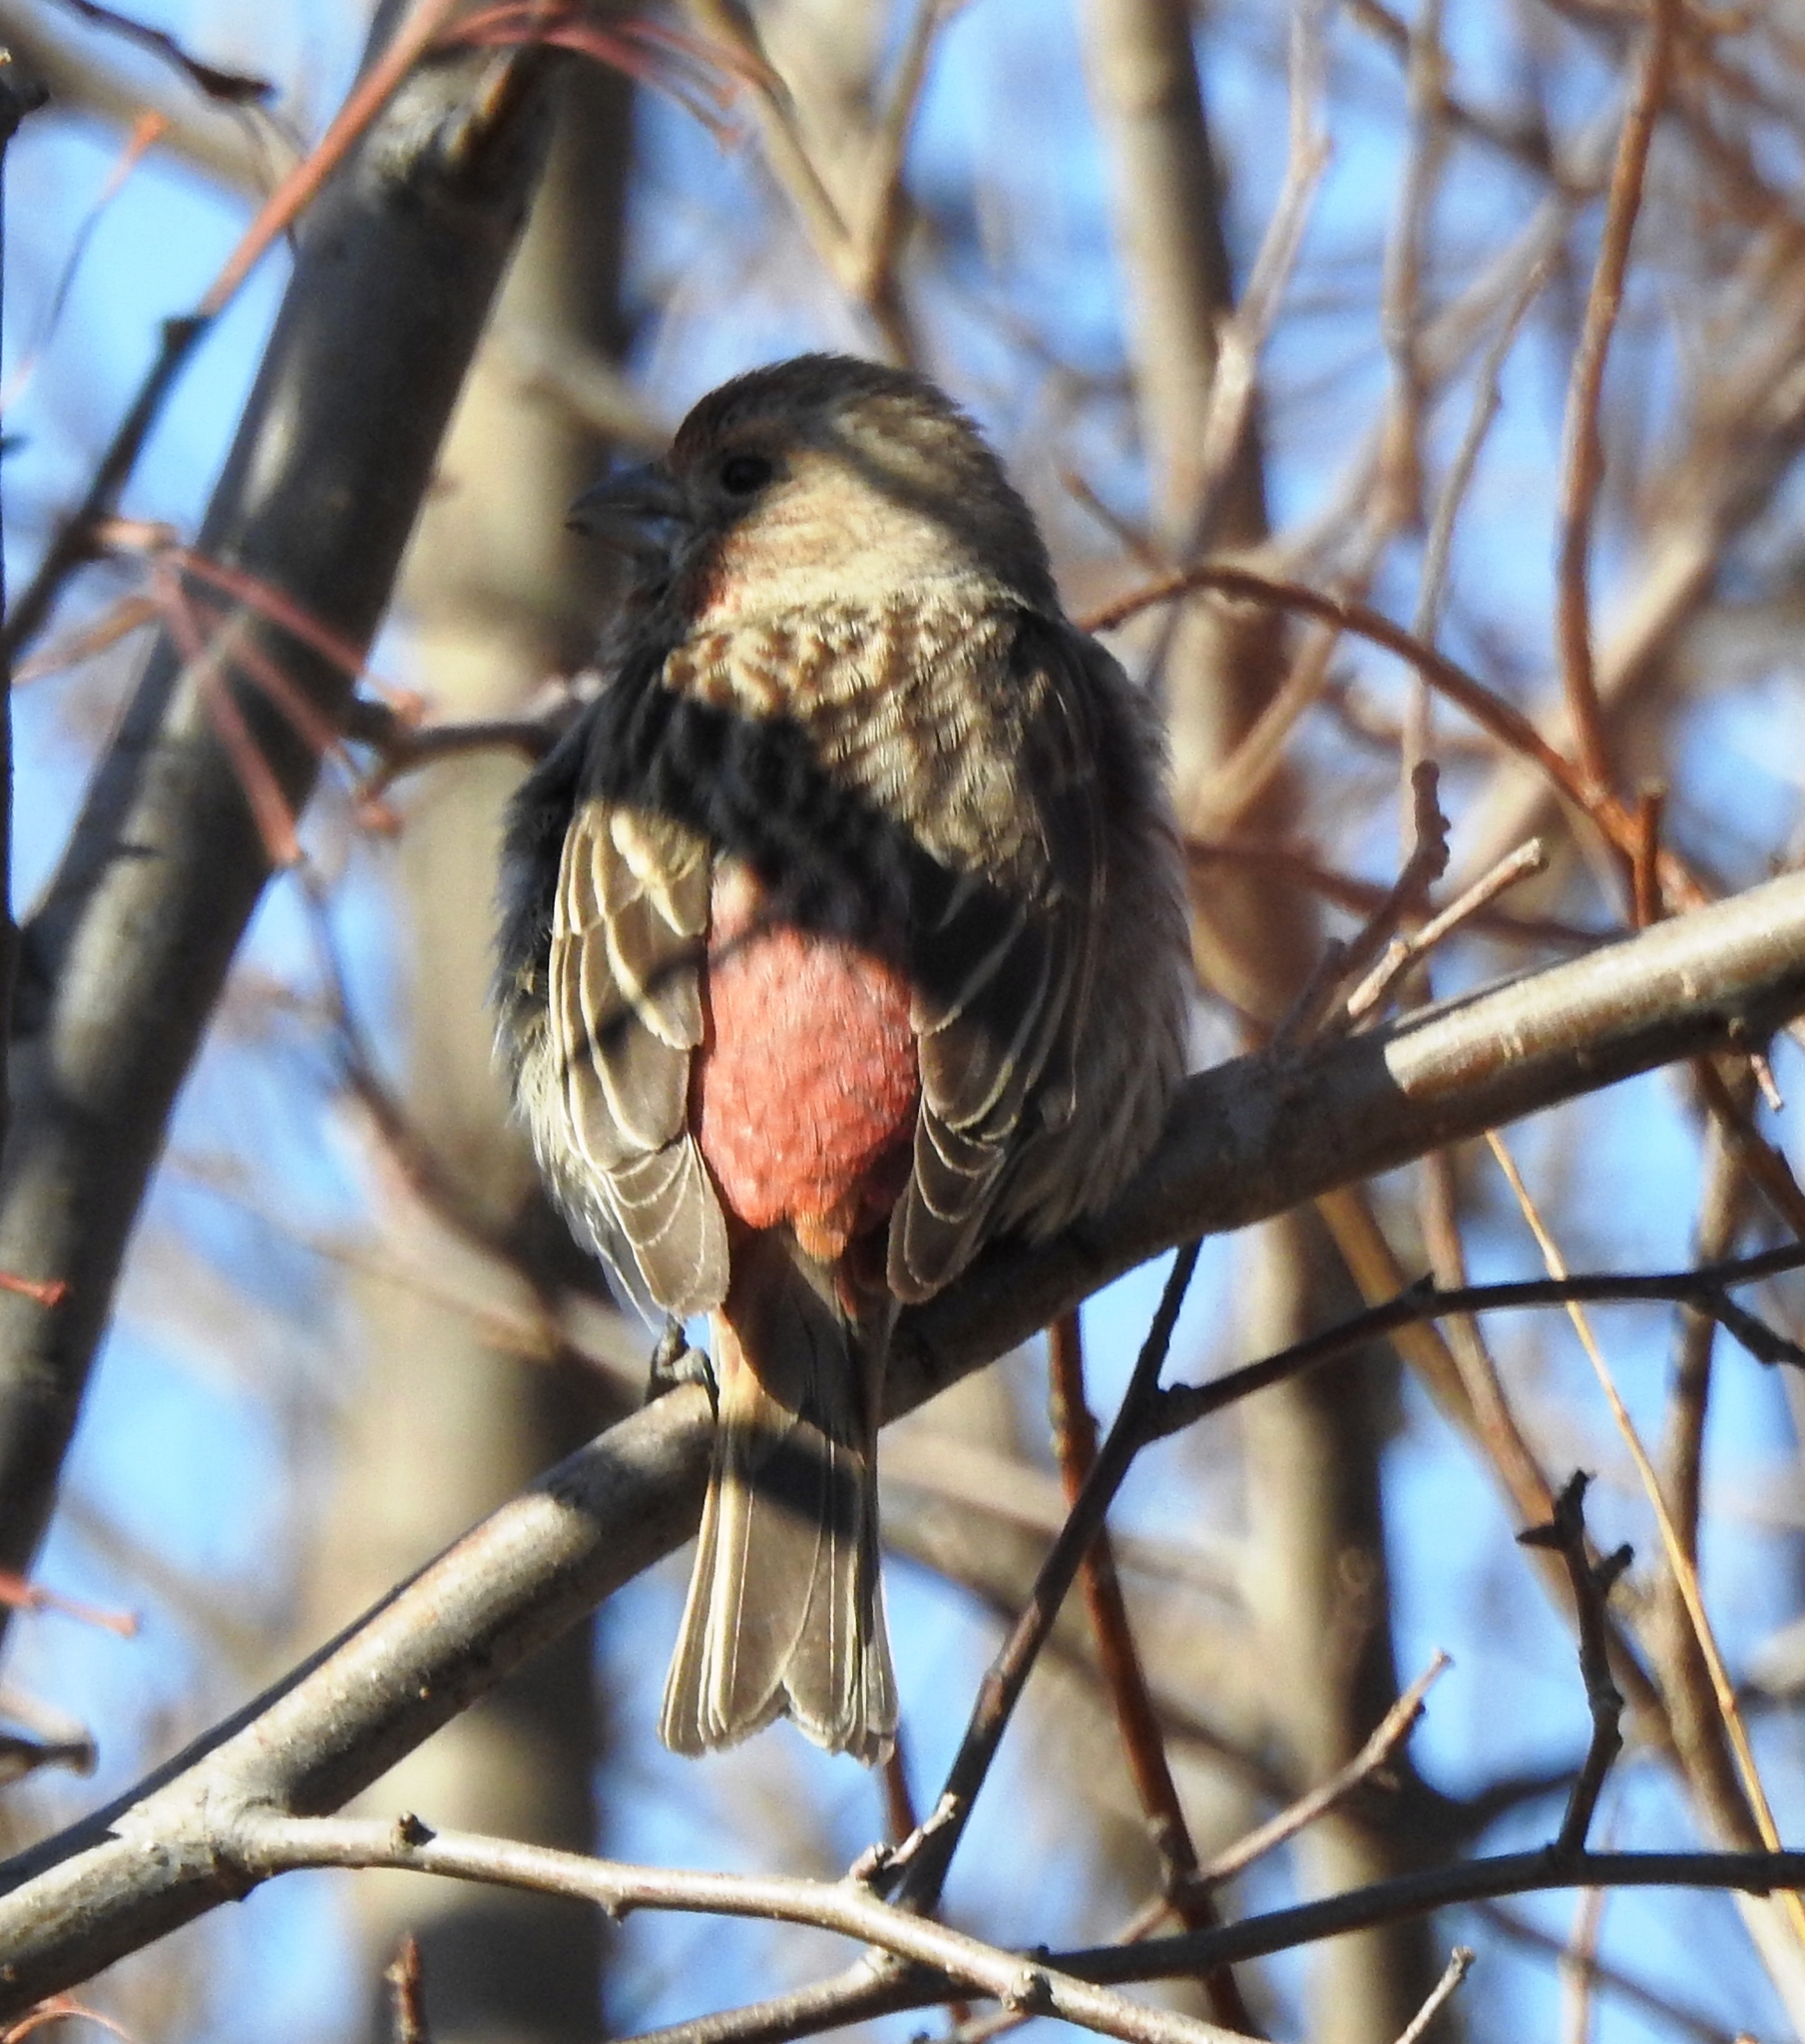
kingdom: Animalia
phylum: Chordata
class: Aves
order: Passeriformes
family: Fringillidae
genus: Carpodacus
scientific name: Carpodacus roseus
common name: Pallas's rosefinch
